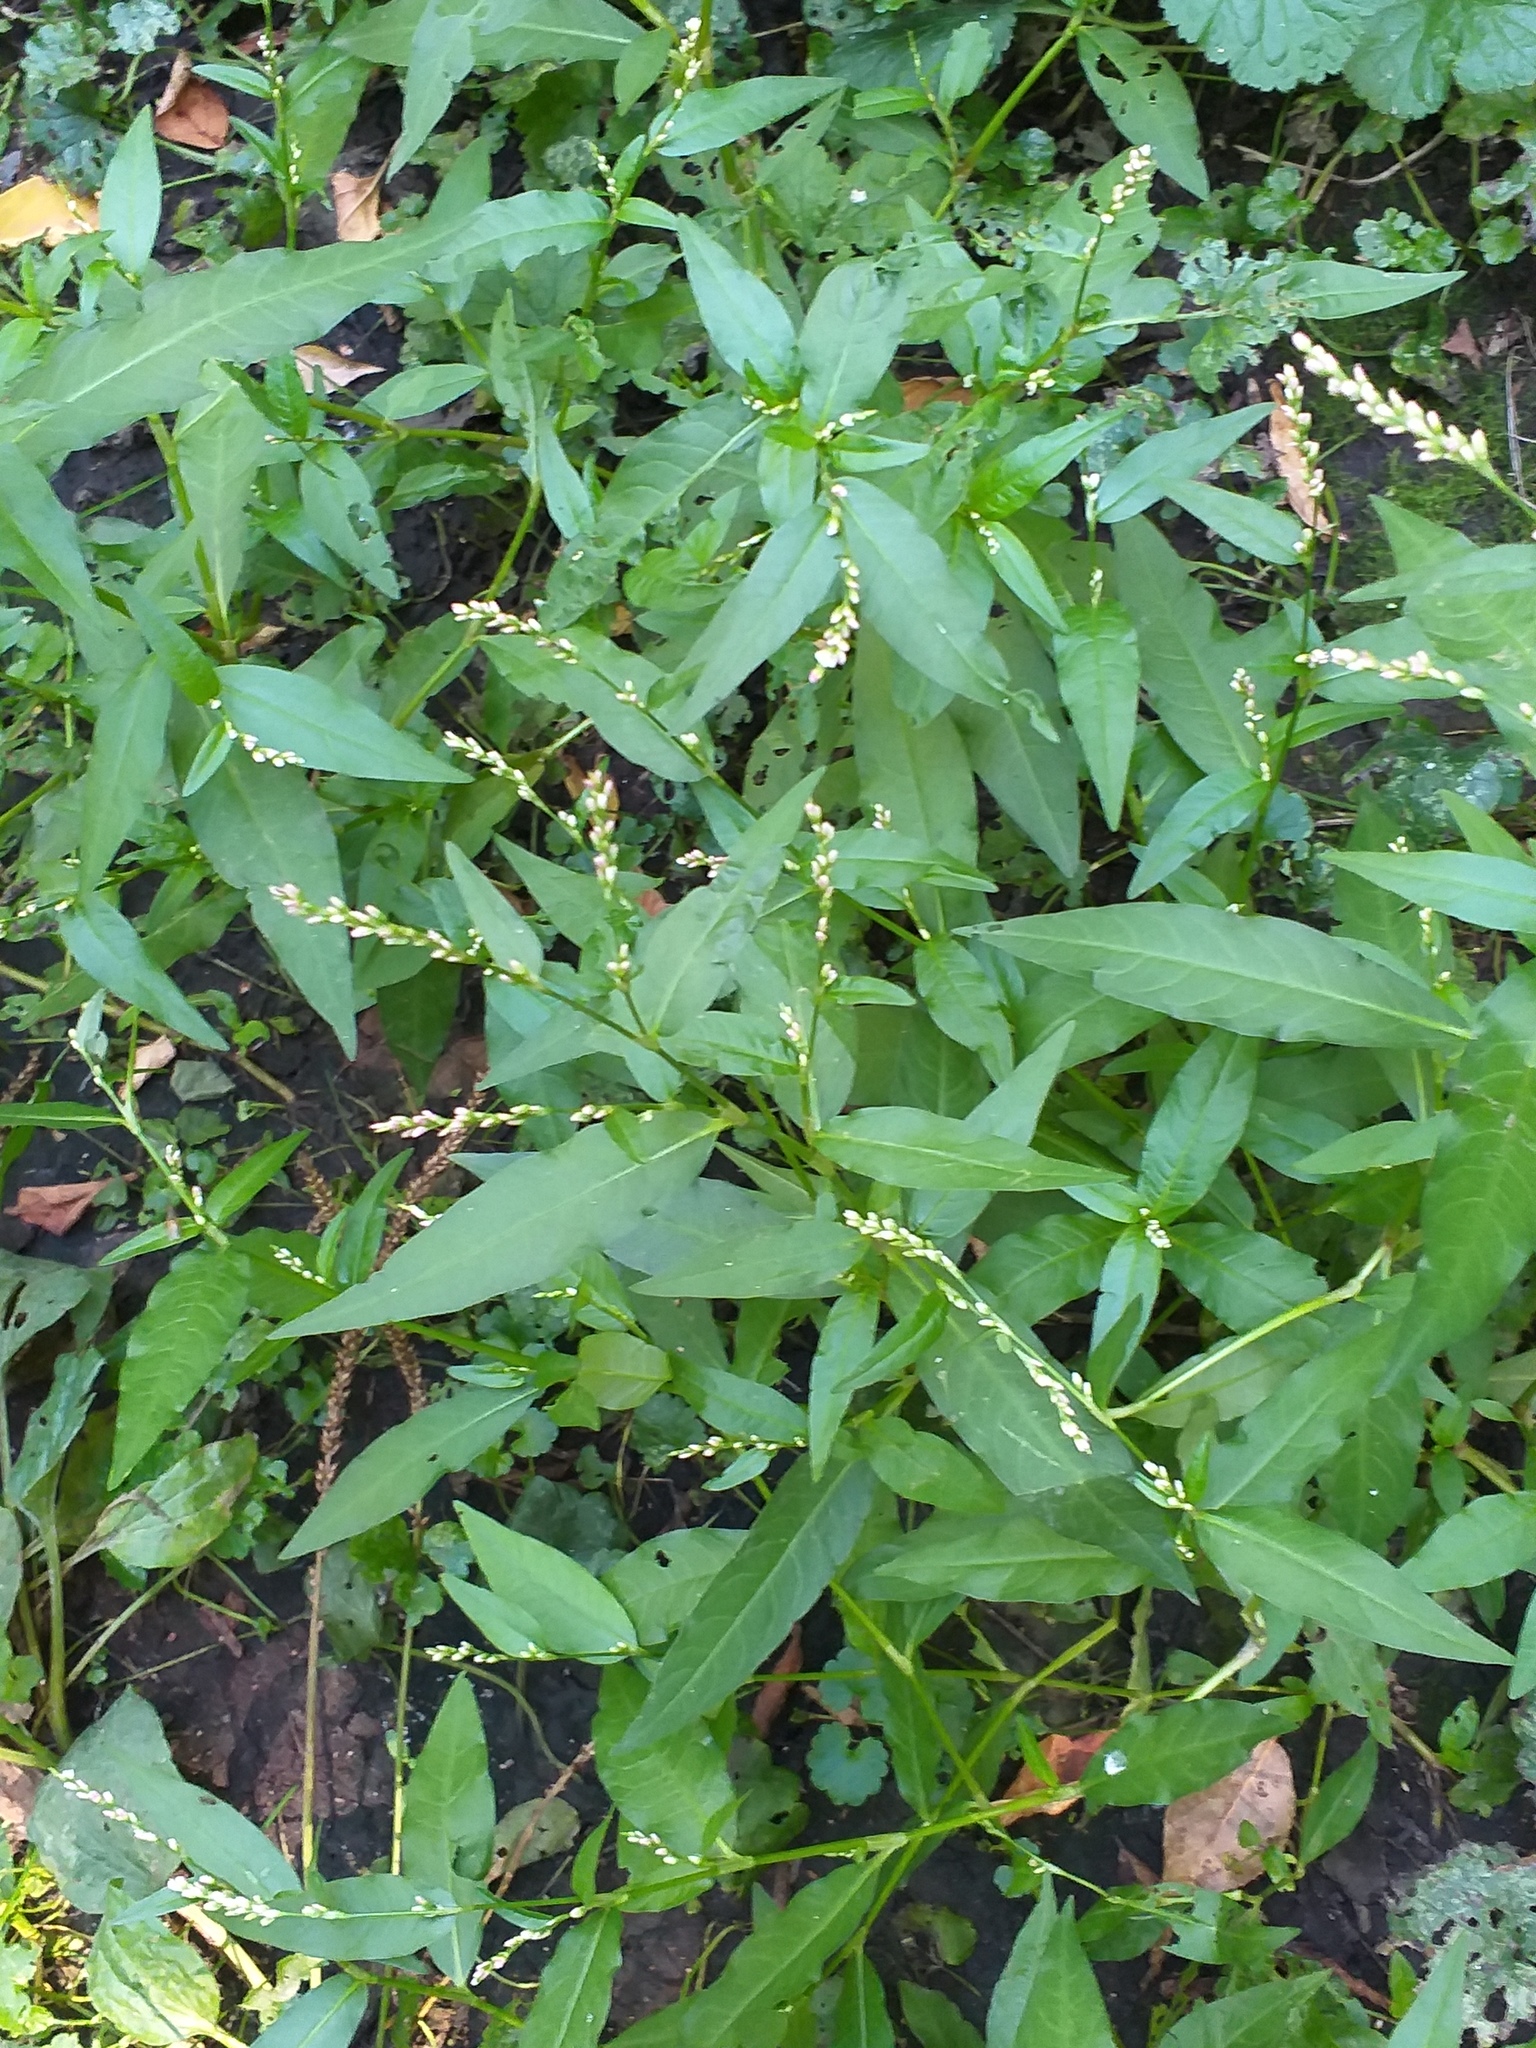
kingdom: Plantae
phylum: Tracheophyta
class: Magnoliopsida
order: Caryophyllales
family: Polygonaceae
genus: Persicaria
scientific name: Persicaria hydropiper
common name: Water-pepper
